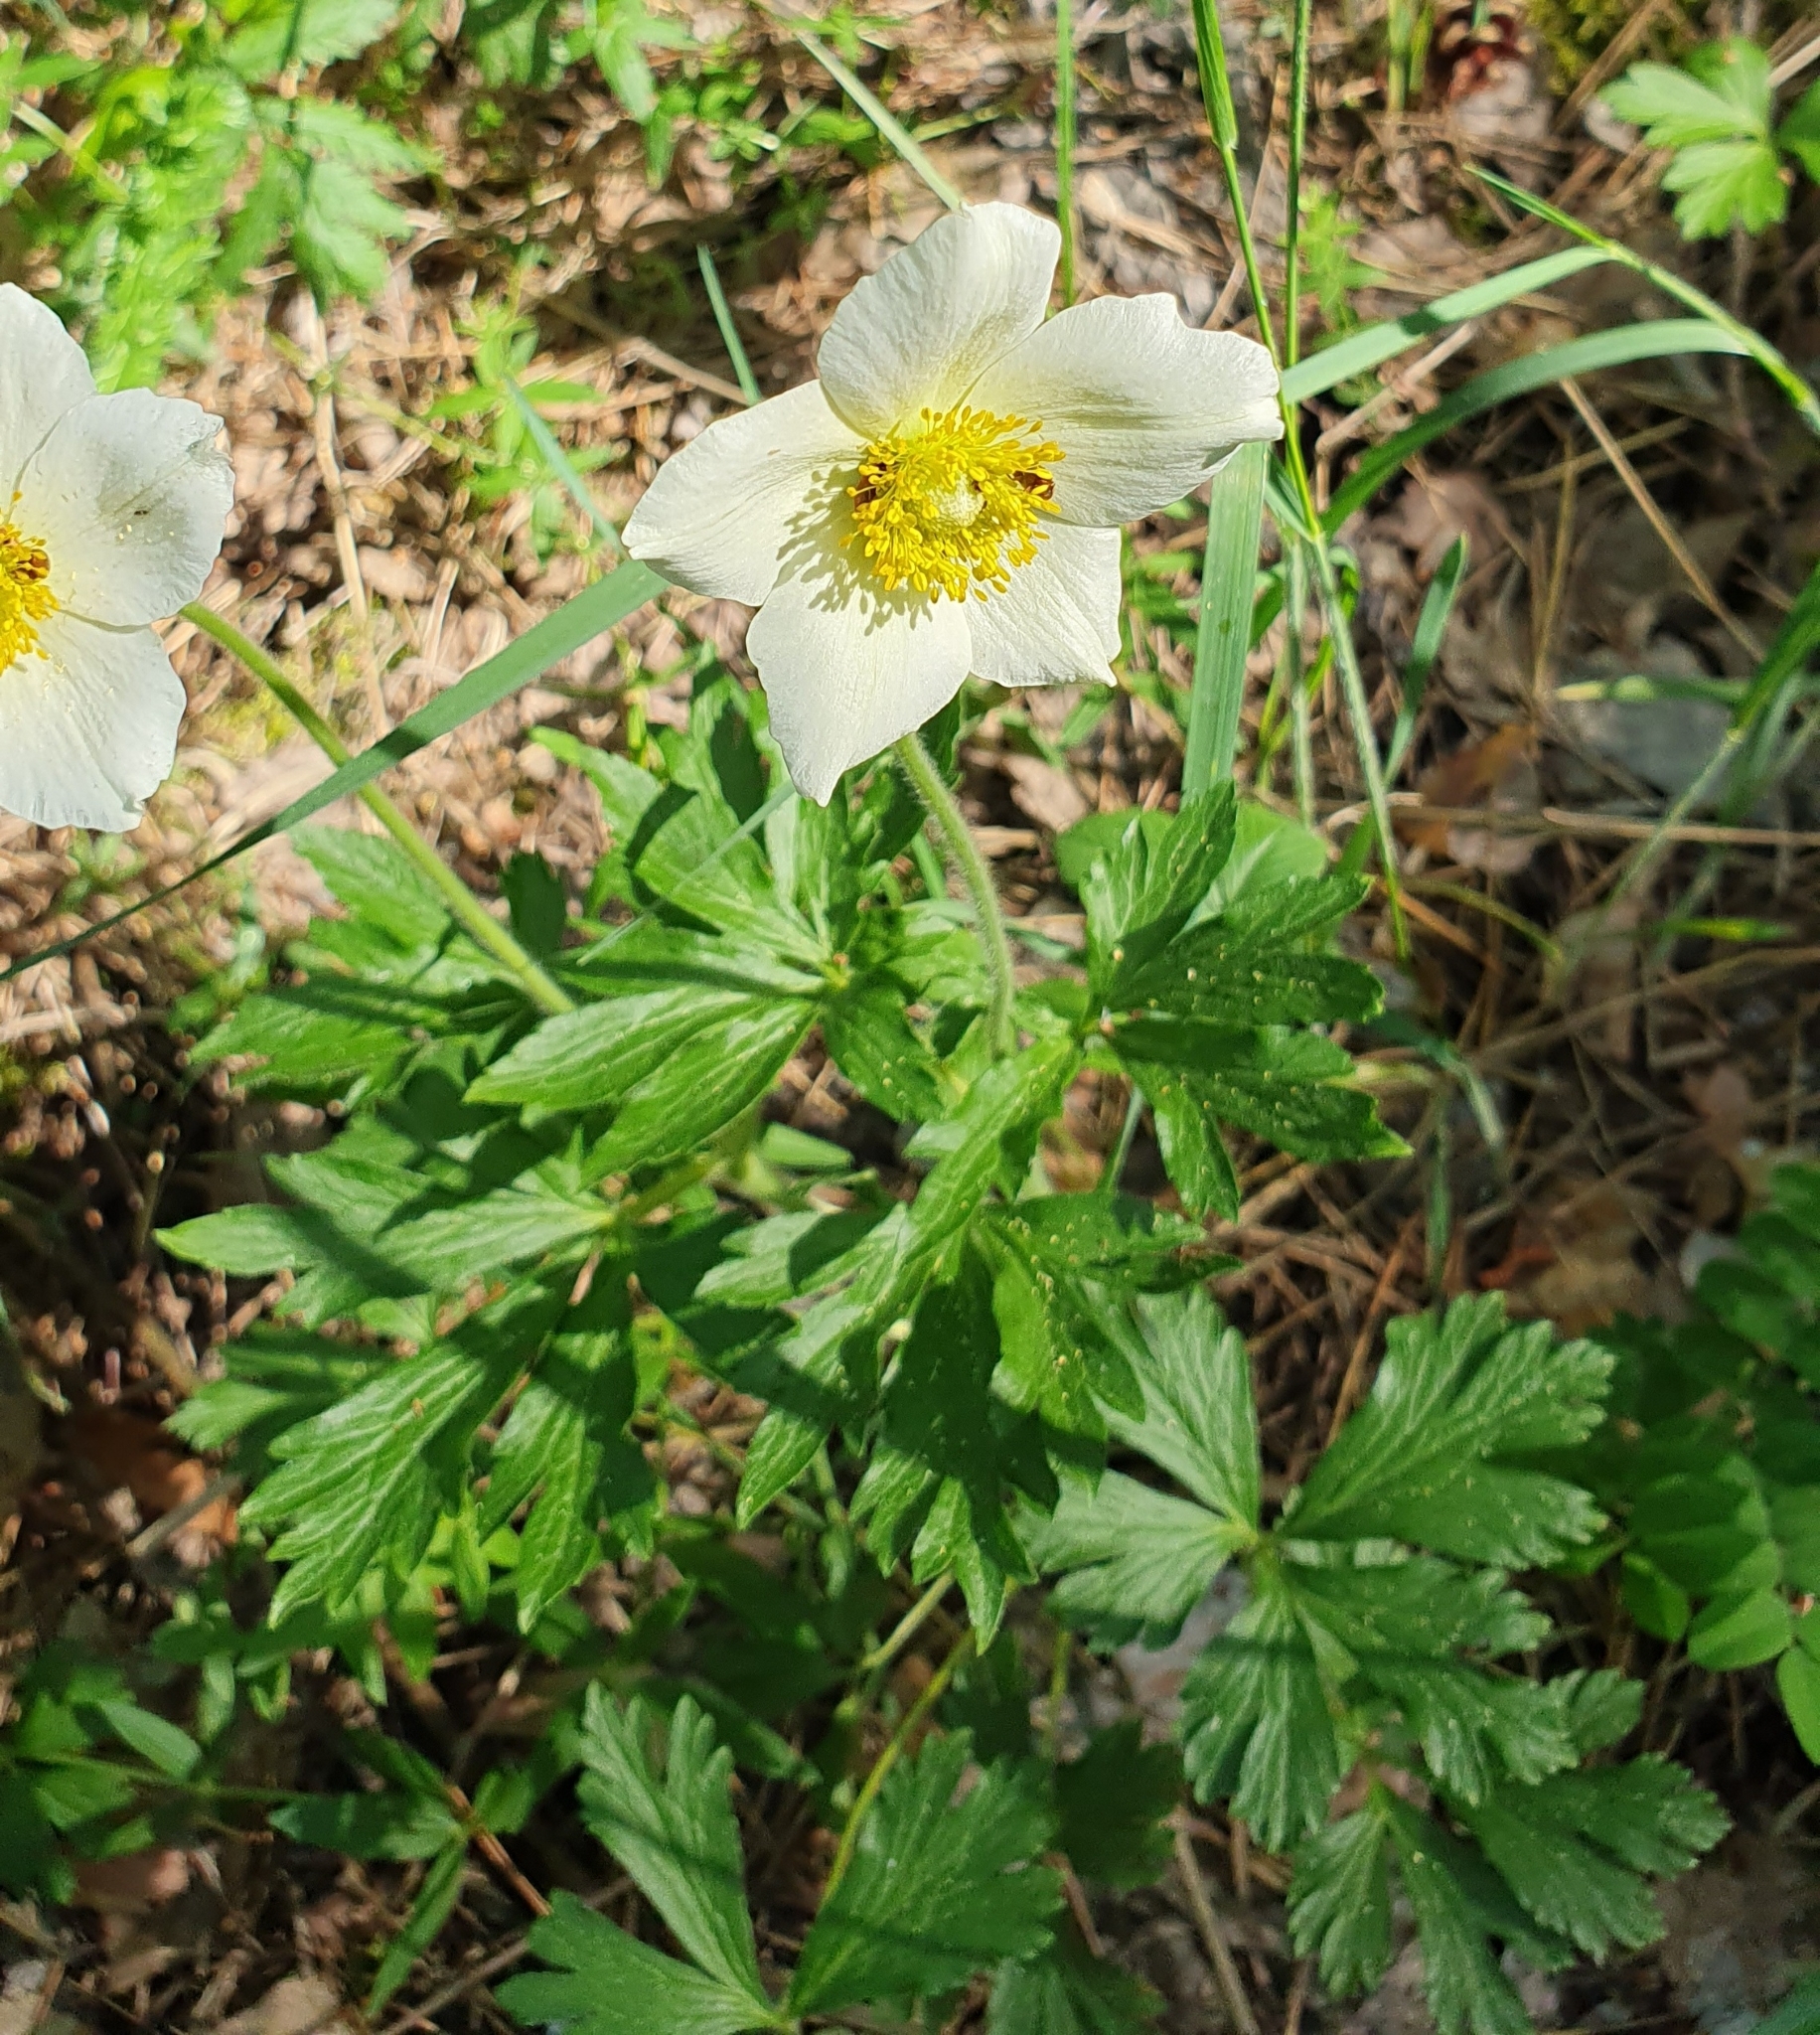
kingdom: Plantae
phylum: Tracheophyta
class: Magnoliopsida
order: Ranunculales
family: Ranunculaceae
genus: Anemone
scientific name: Anemone sylvestris
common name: Snowdrop anemone
